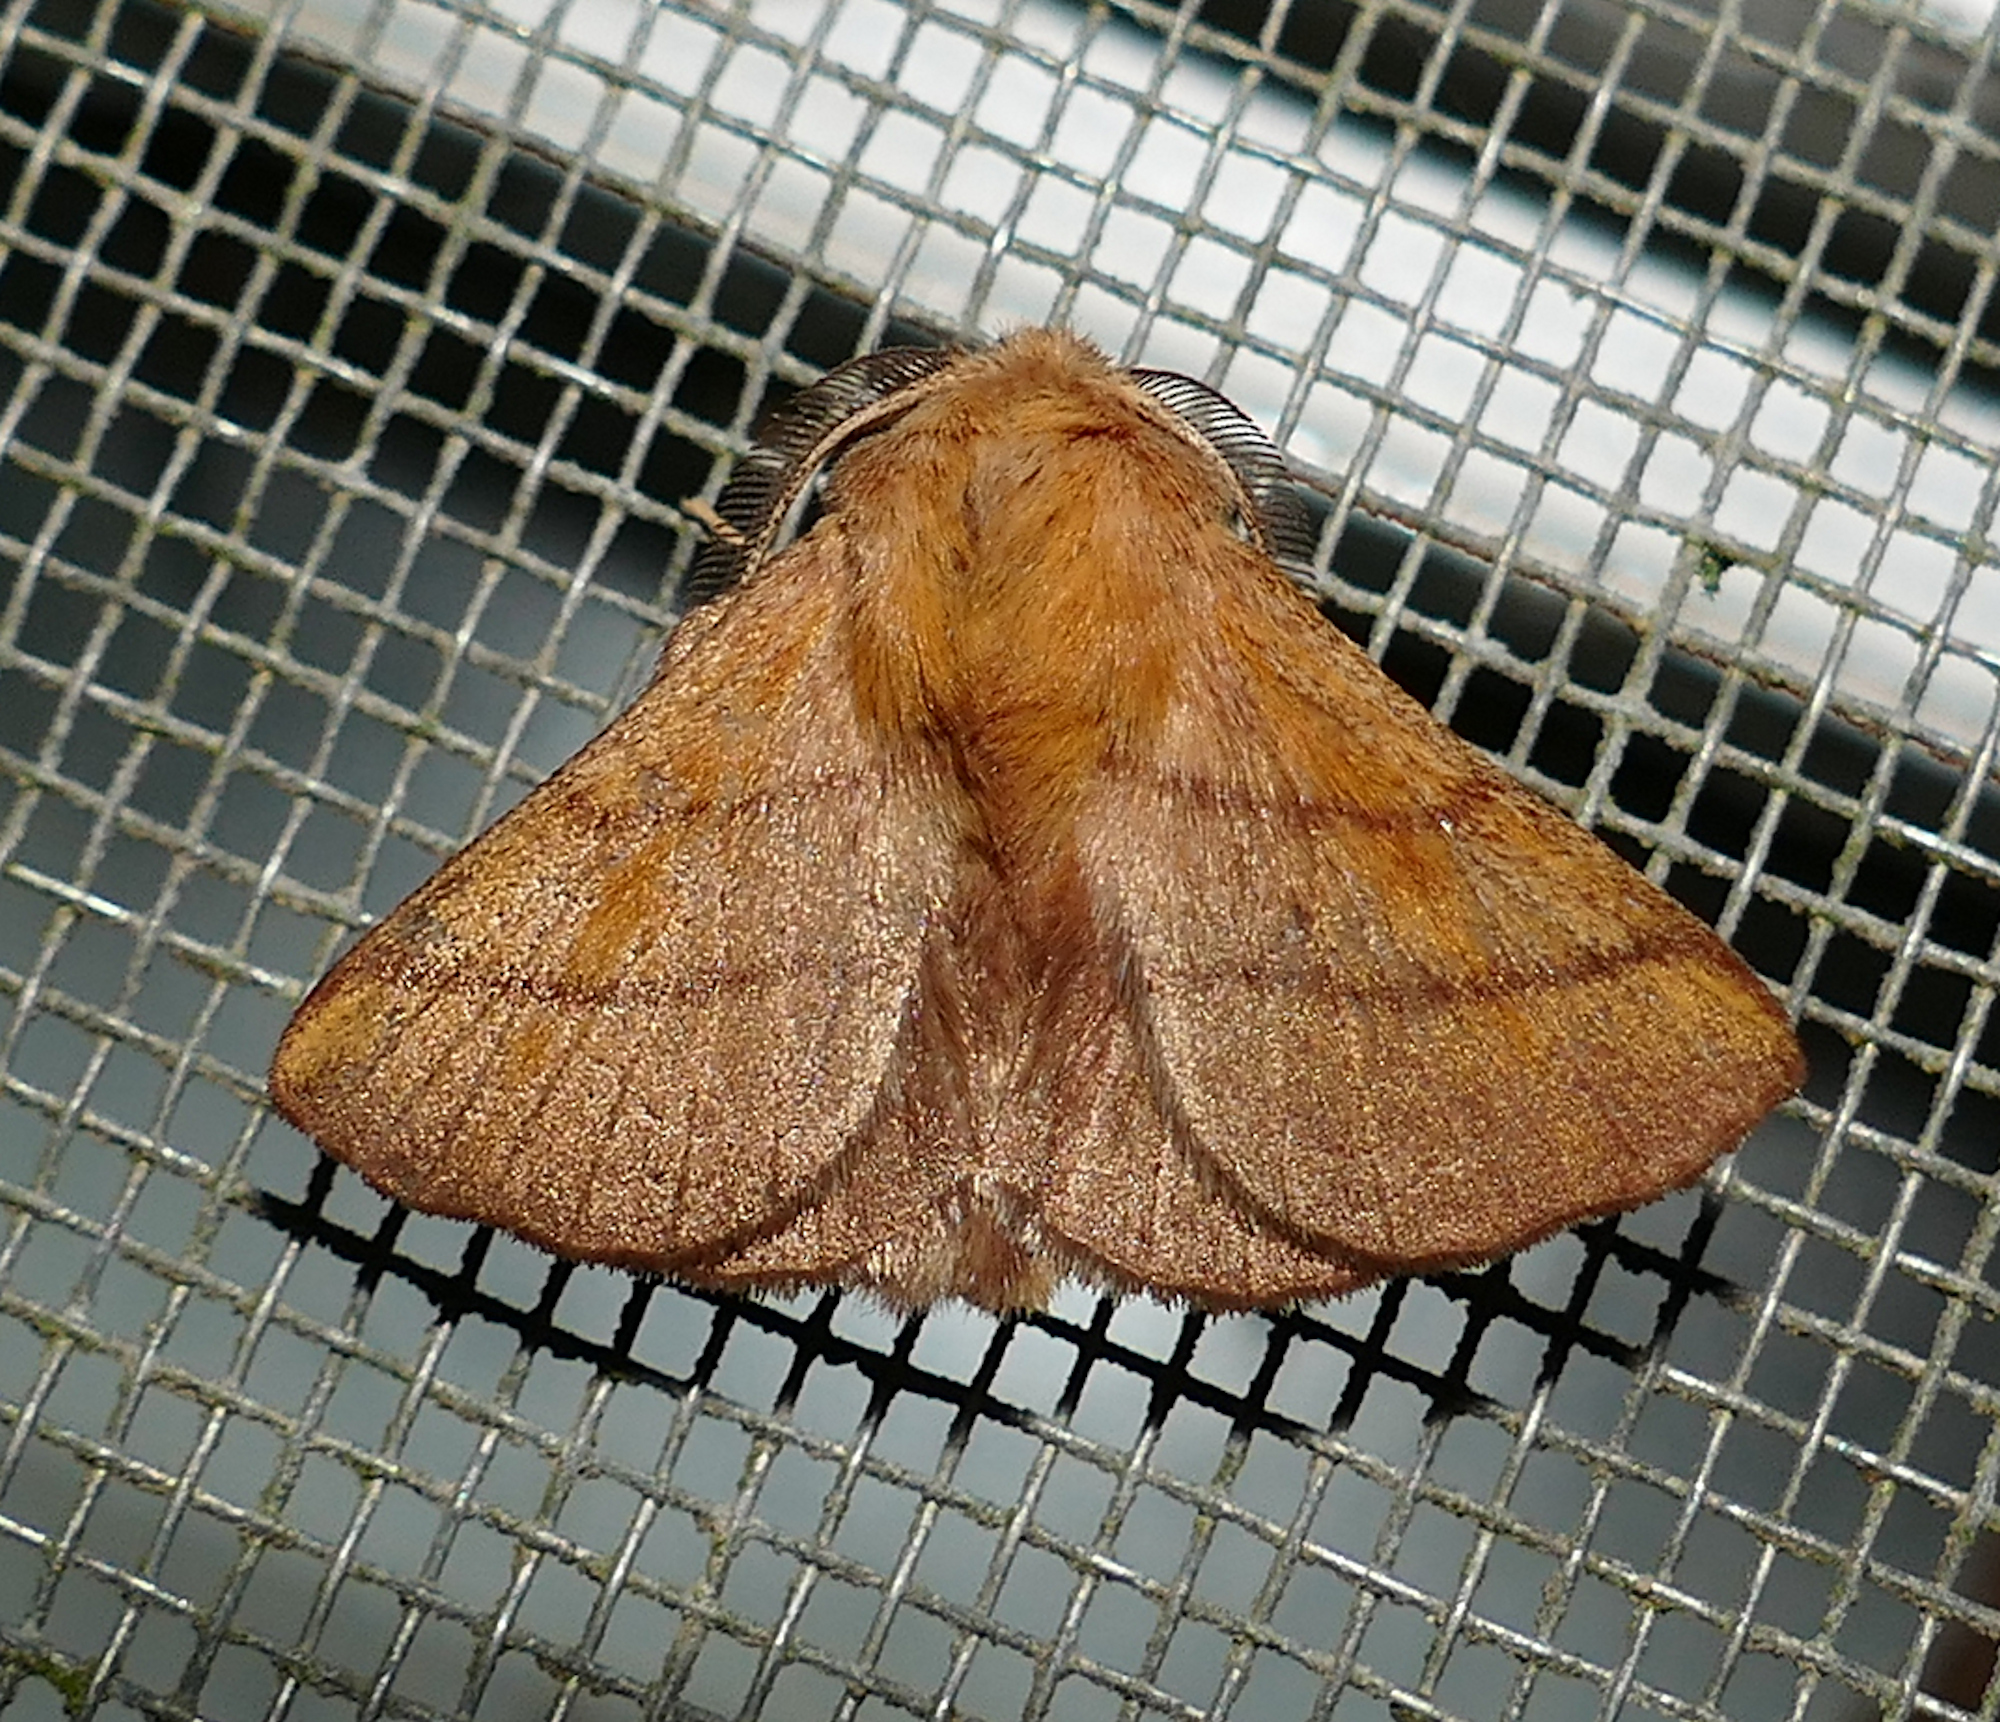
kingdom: Animalia
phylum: Arthropoda
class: Insecta
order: Lepidoptera
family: Lasiocampidae
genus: Malacosoma
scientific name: Malacosoma disstria
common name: Forest tent caterpillar
